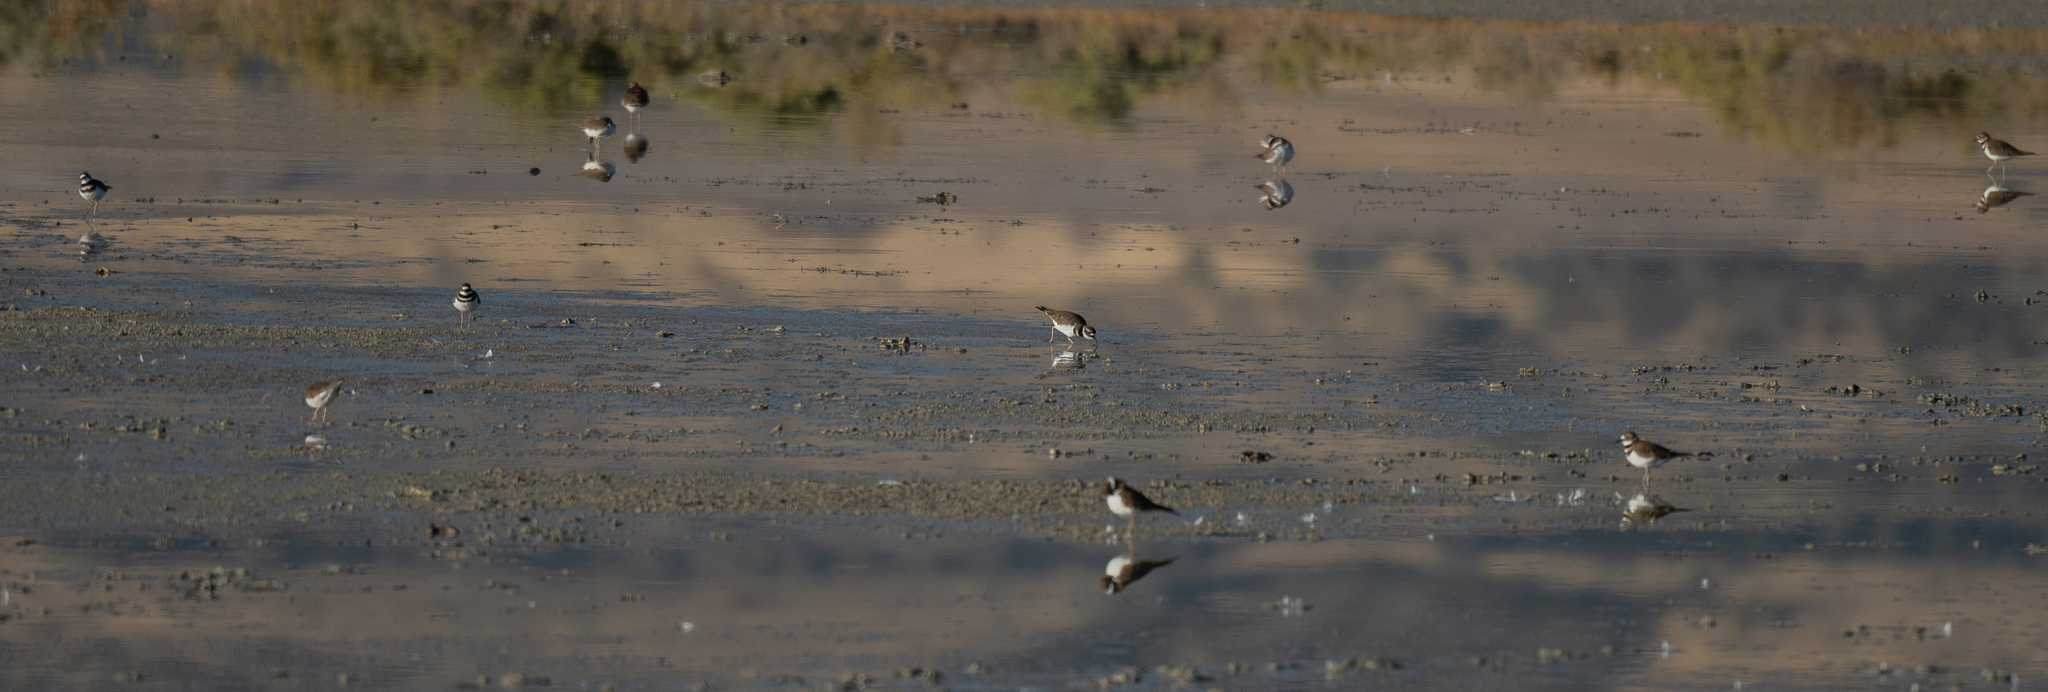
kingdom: Animalia
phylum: Chordata
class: Aves
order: Charadriiformes
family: Charadriidae
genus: Charadrius
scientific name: Charadrius vociferus
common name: Killdeer
